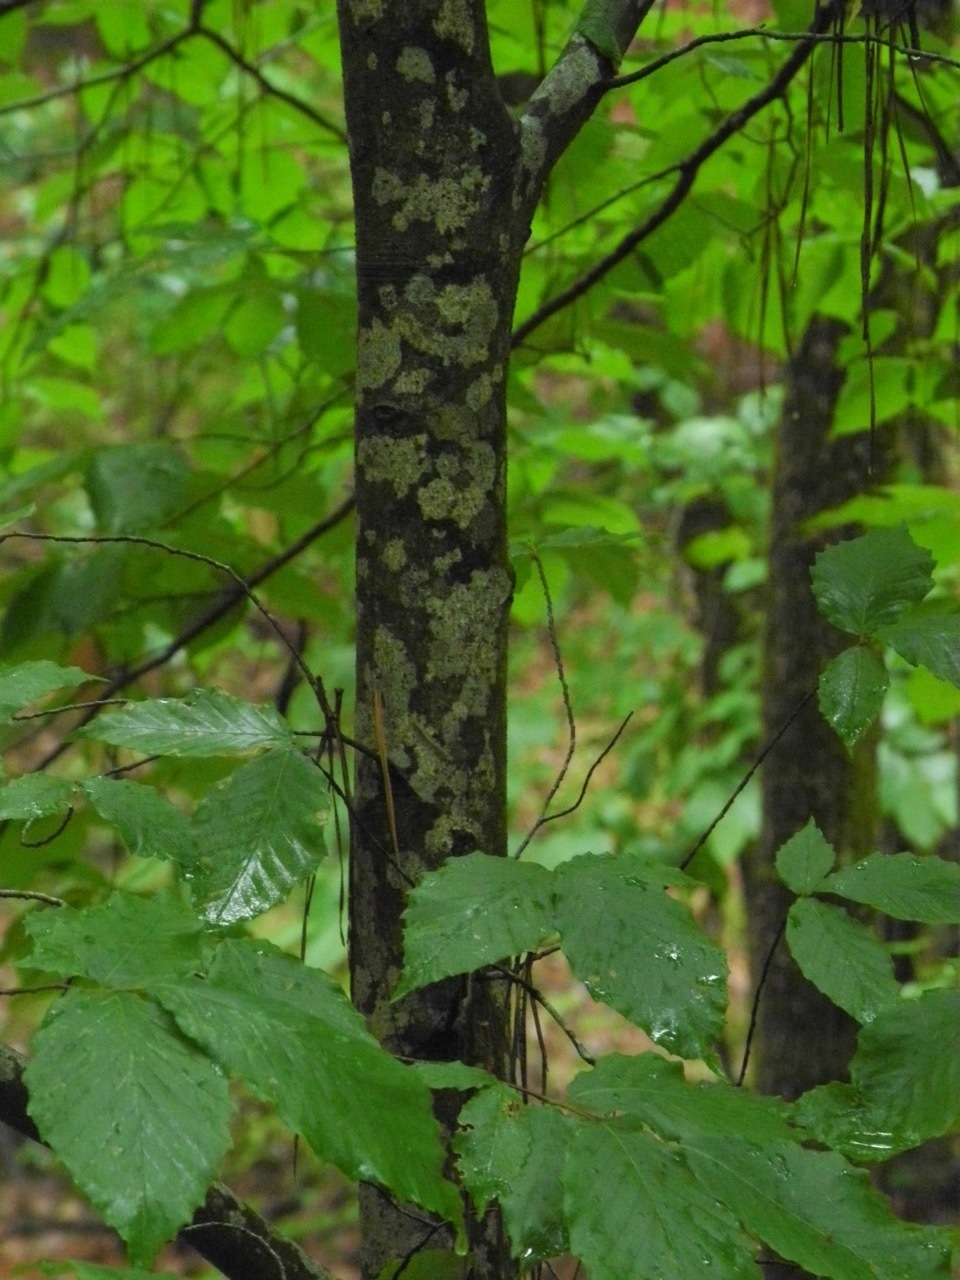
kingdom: Plantae
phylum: Tracheophyta
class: Magnoliopsida
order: Fagales
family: Fagaceae
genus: Fagus
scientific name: Fagus grandifolia
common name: American beech
